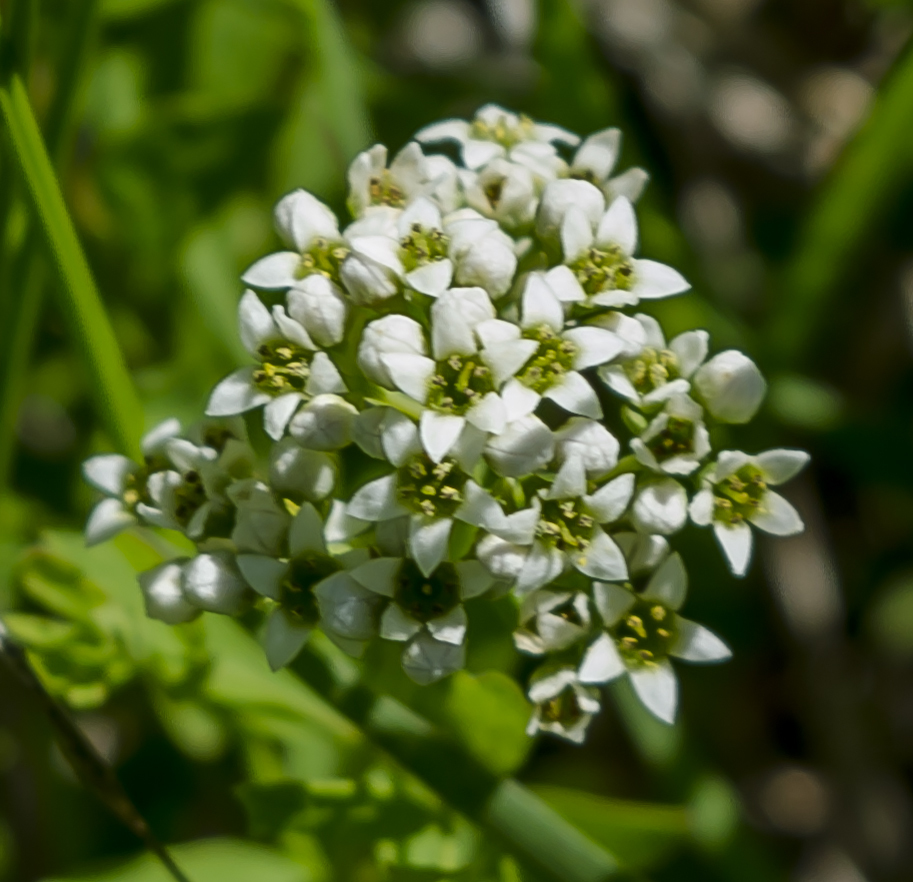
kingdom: Plantae
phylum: Tracheophyta
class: Magnoliopsida
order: Santalales
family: Comandraceae
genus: Comandra
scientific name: Comandra umbellata
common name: Bastard toadflax
